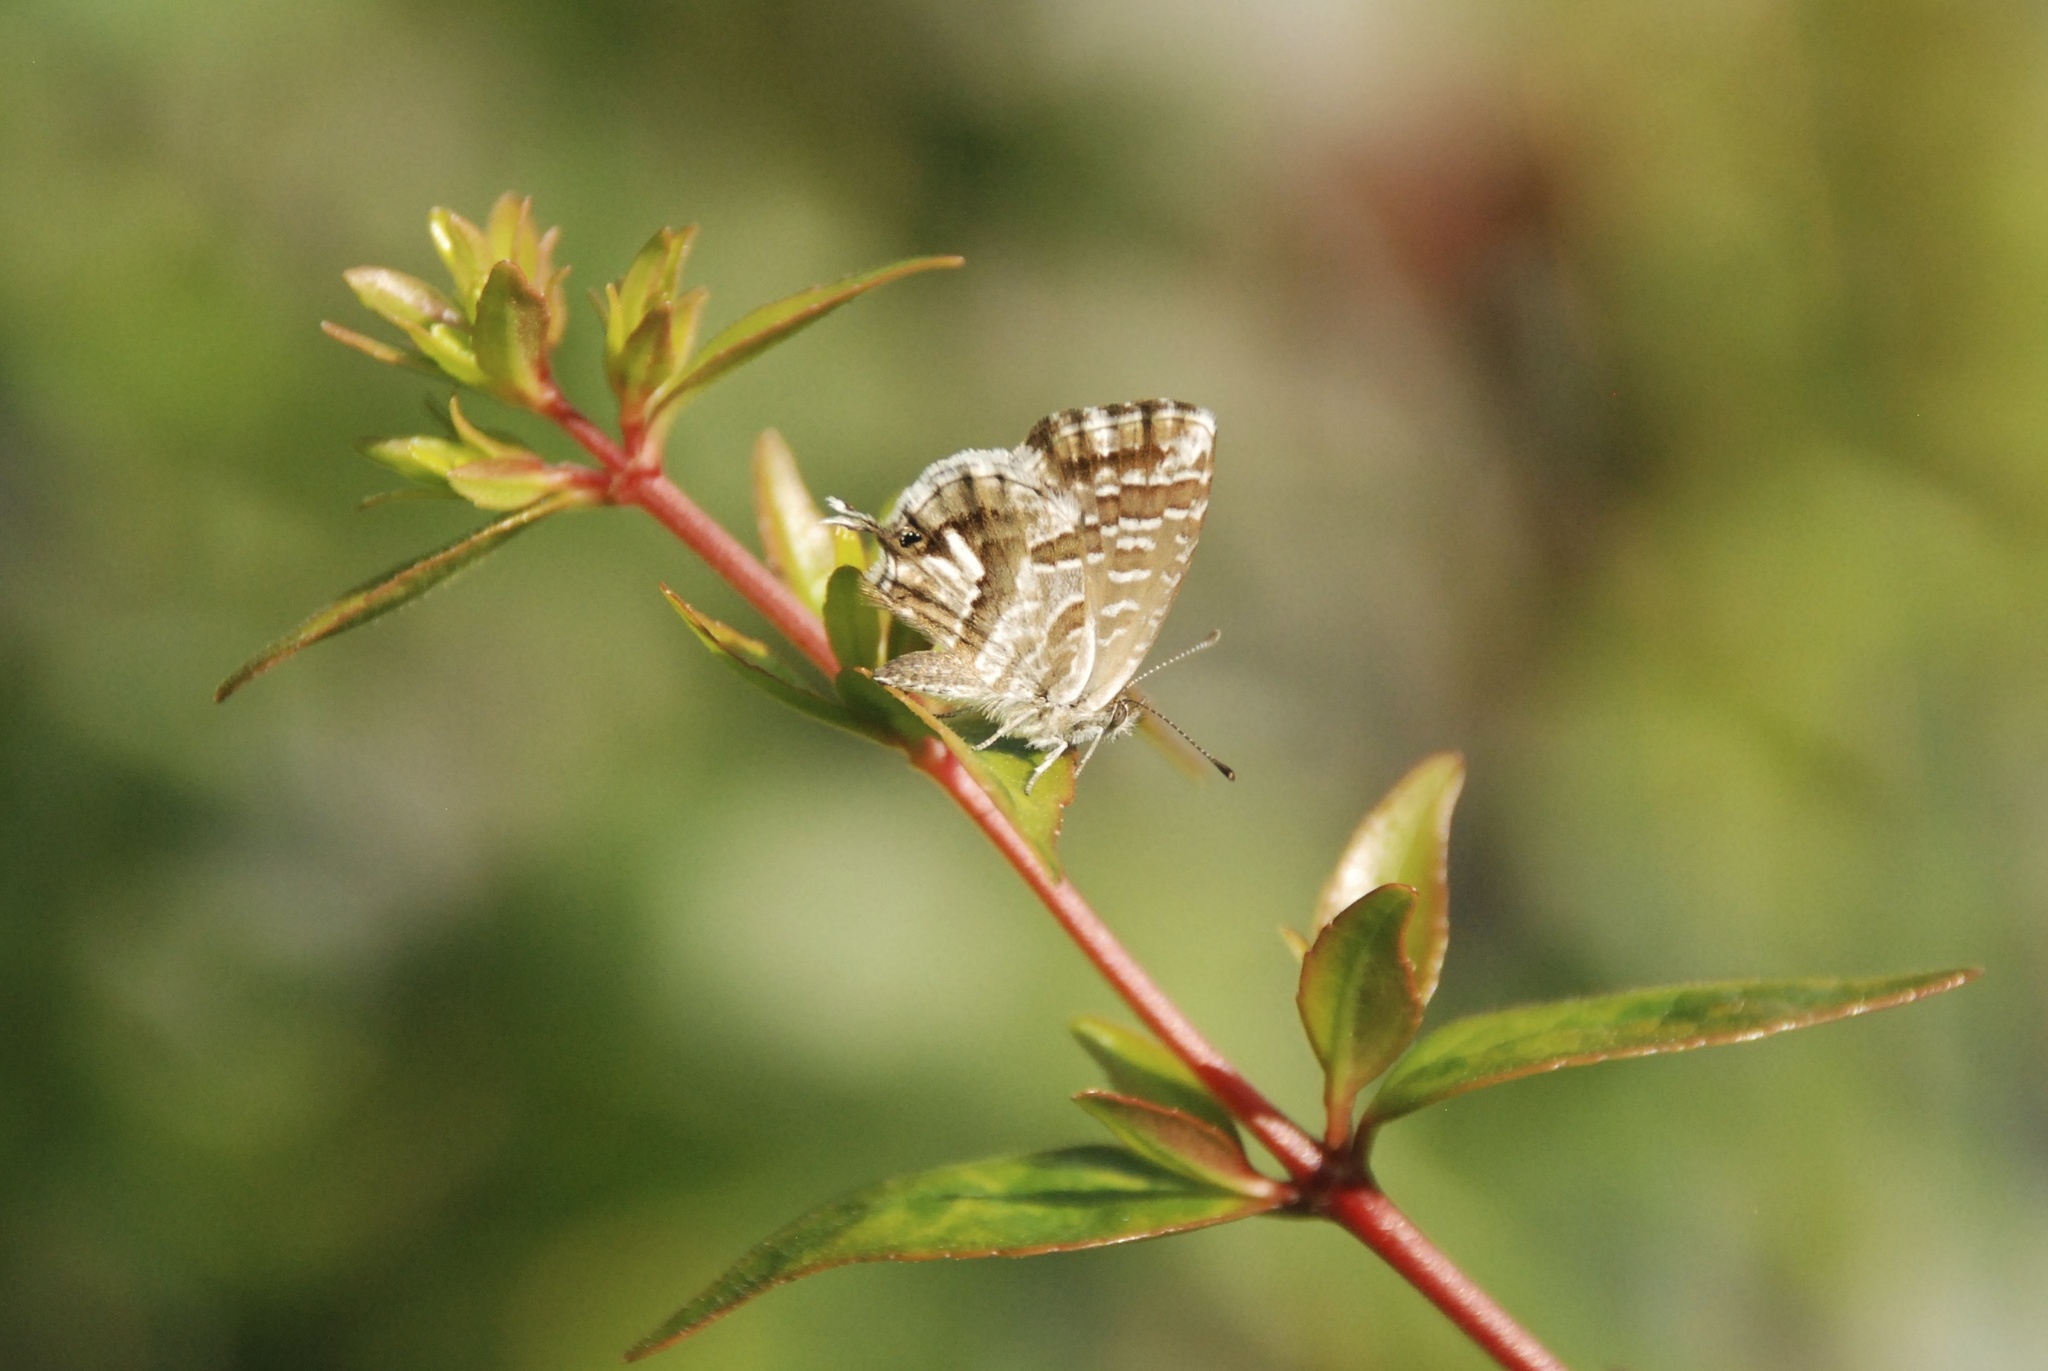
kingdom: Animalia
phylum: Arthropoda
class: Insecta
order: Lepidoptera
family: Lycaenidae
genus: Cacyreus
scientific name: Cacyreus marshalli
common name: Geranium bronze
